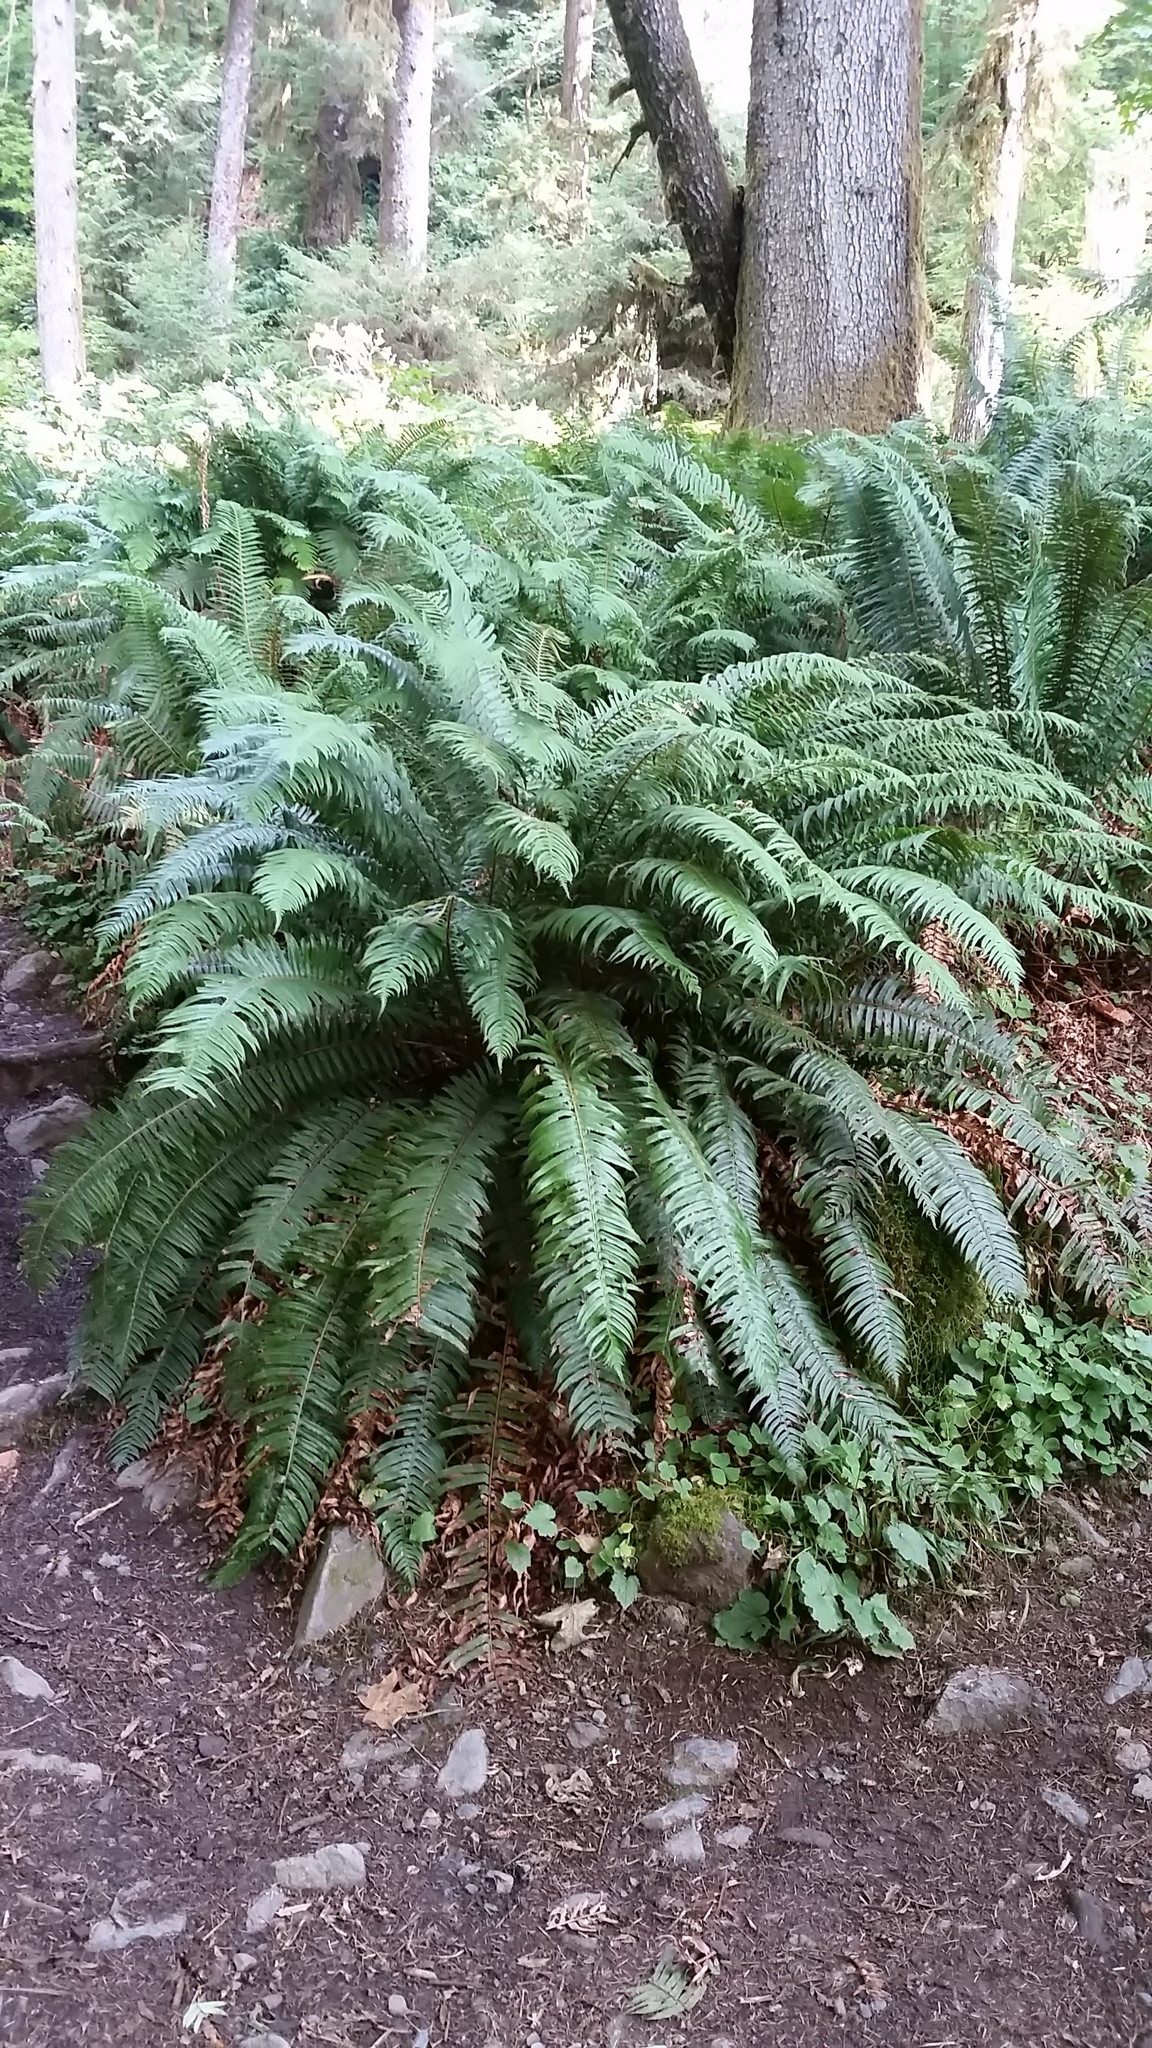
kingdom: Plantae
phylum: Tracheophyta
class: Polypodiopsida
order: Polypodiales
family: Dryopteridaceae
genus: Polystichum
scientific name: Polystichum munitum
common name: Western sword-fern
